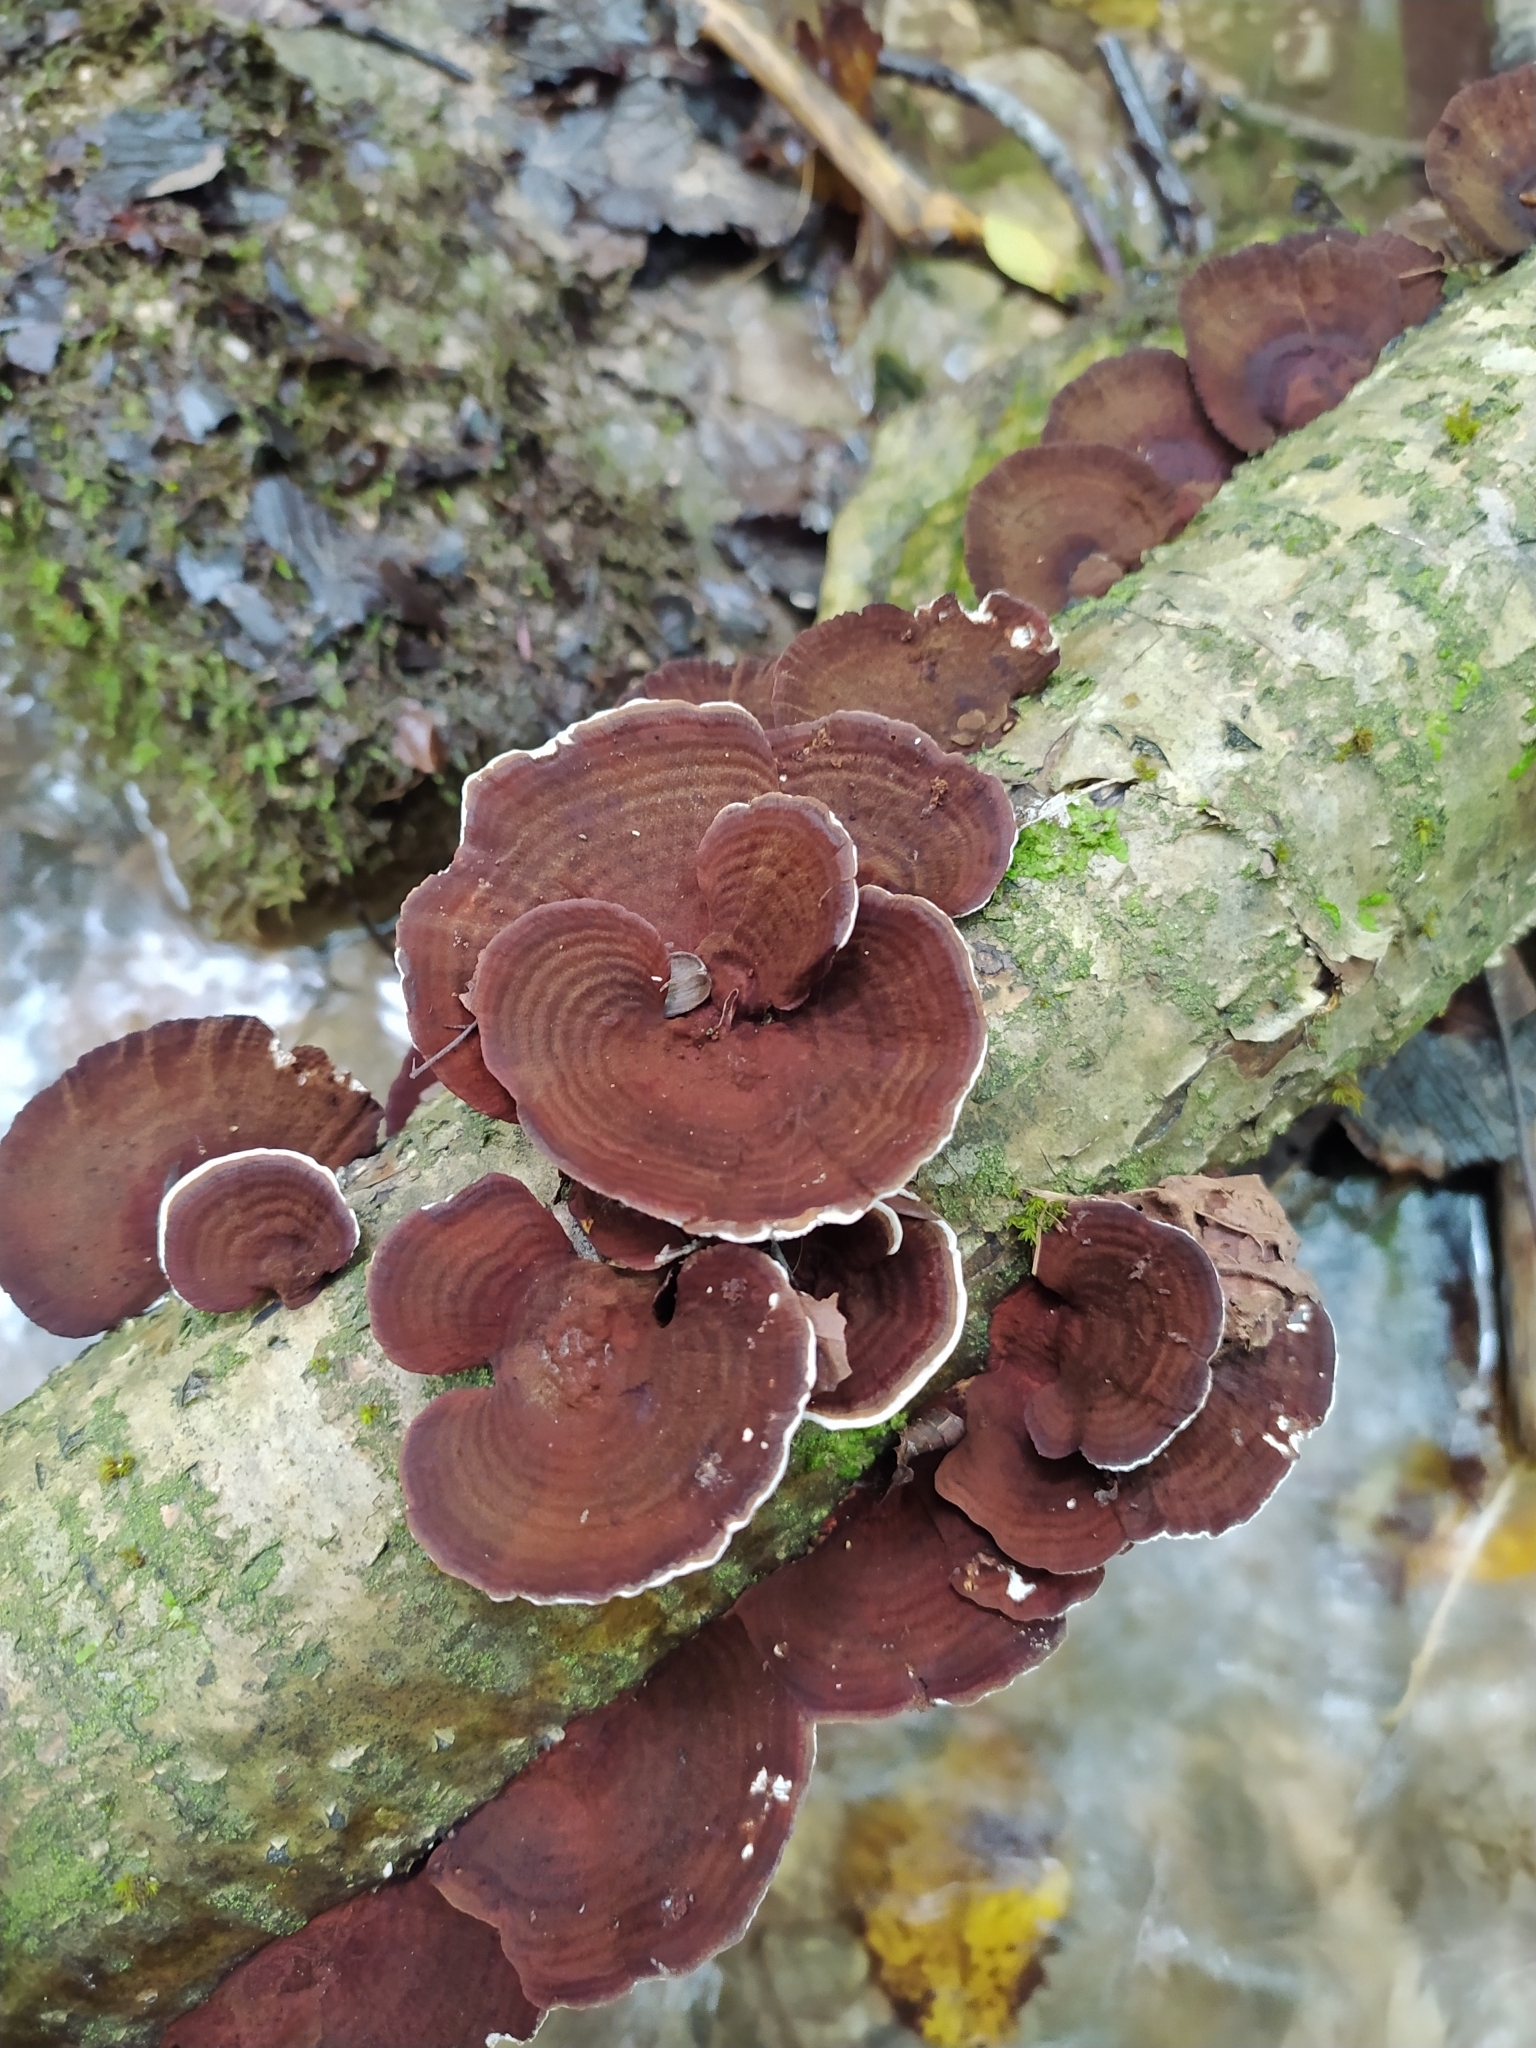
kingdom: Fungi
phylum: Basidiomycota
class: Agaricomycetes
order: Polyporales
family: Polyporaceae
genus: Daedaleopsis
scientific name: Daedaleopsis tricolor
